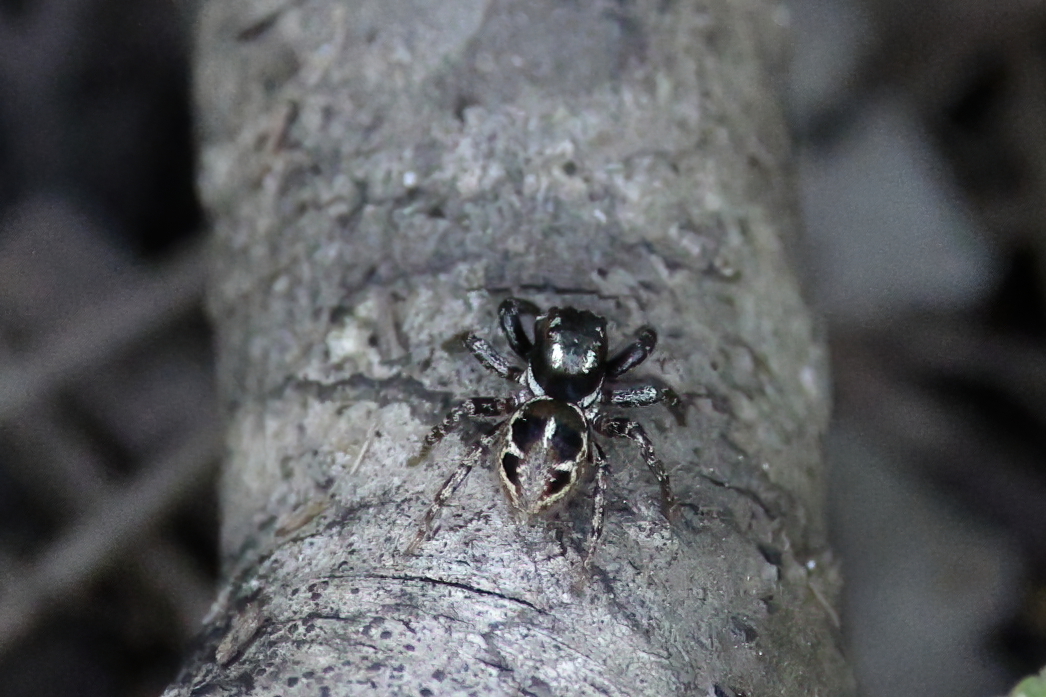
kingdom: Animalia
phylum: Arthropoda
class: Arachnida
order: Araneae
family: Salticidae
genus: Anasaitis
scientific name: Anasaitis canosa
